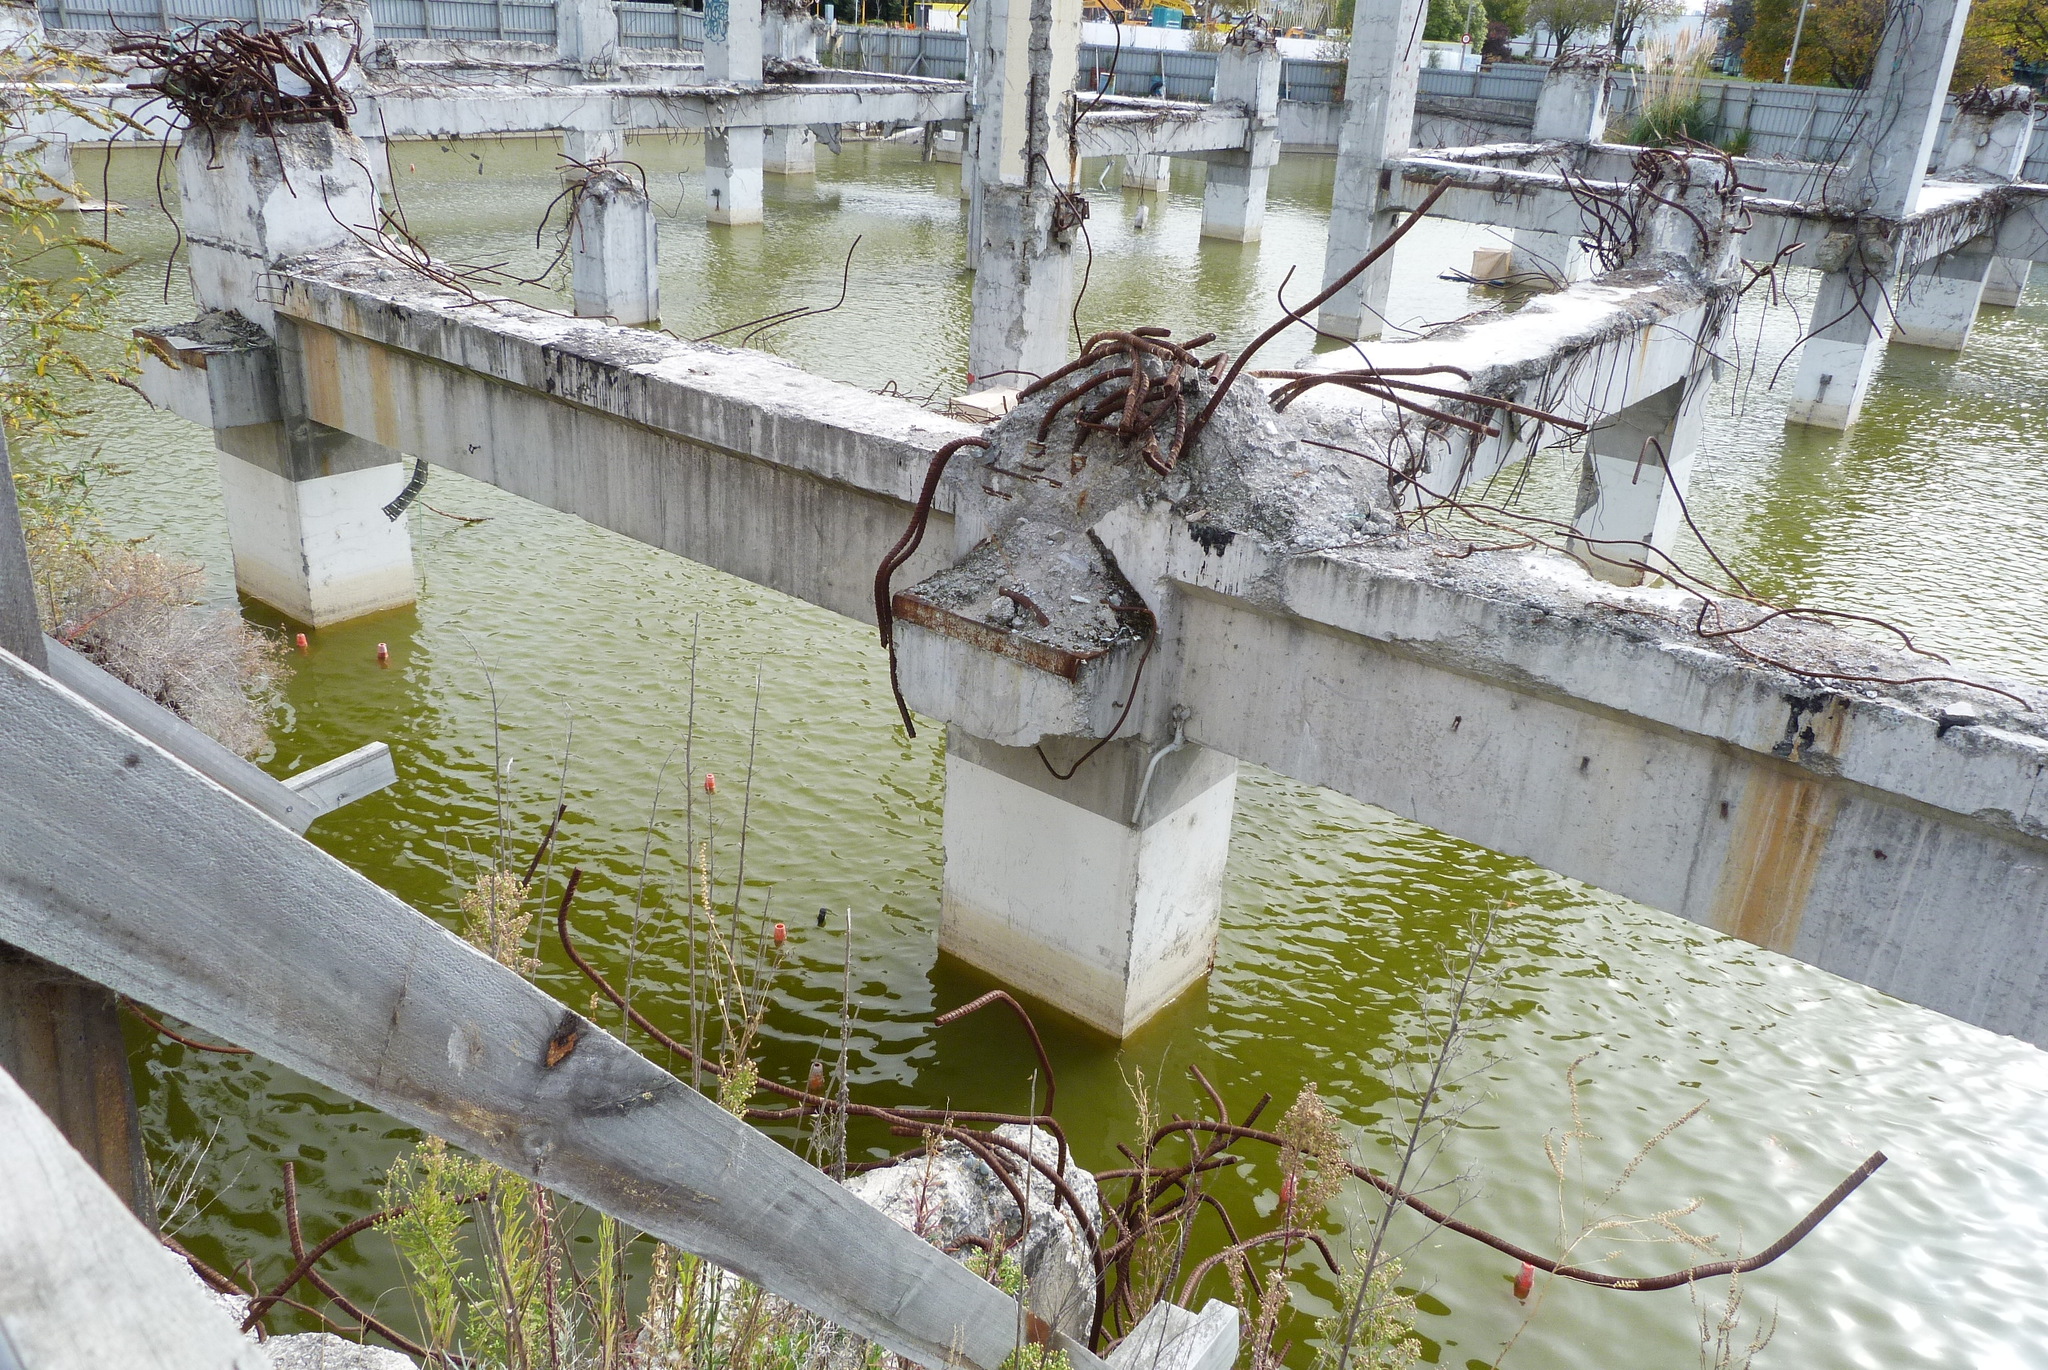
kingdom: Animalia
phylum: Chordata
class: Aves
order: Passeriformes
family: Hirundinidae
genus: Hirundo
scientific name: Hirundo neoxena
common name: Welcome swallow
